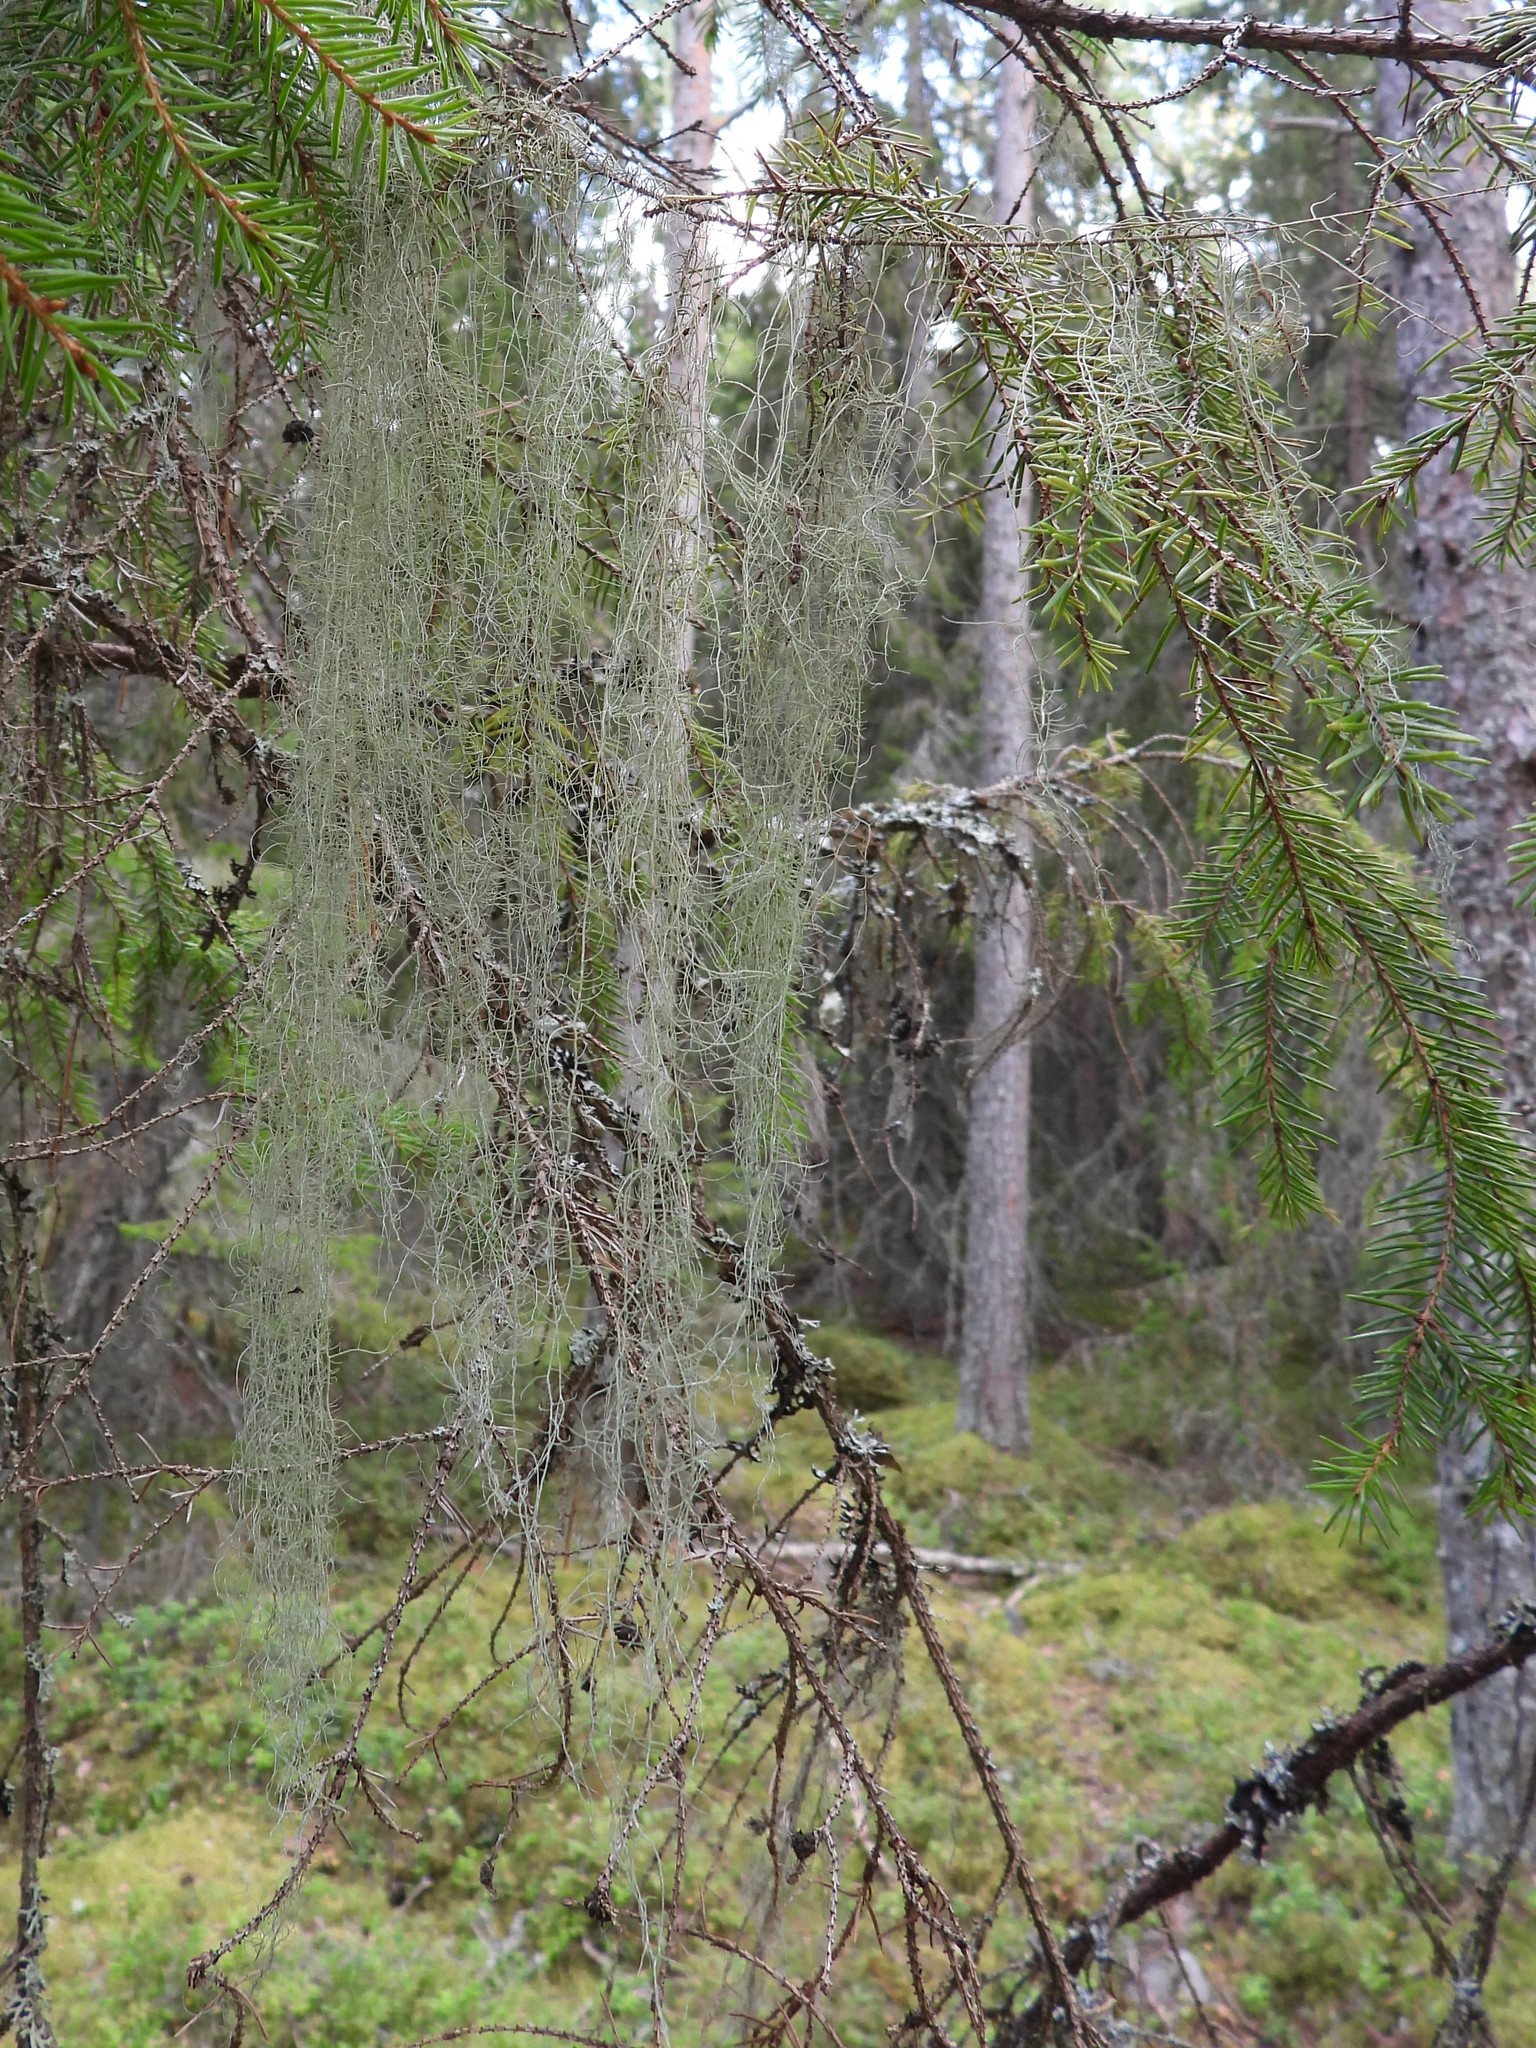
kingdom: Fungi
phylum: Ascomycota
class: Lecanoromycetes
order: Lecanorales
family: Parmeliaceae
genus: Usnea
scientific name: Usnea dasopoga
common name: Fishbone beard lichen
